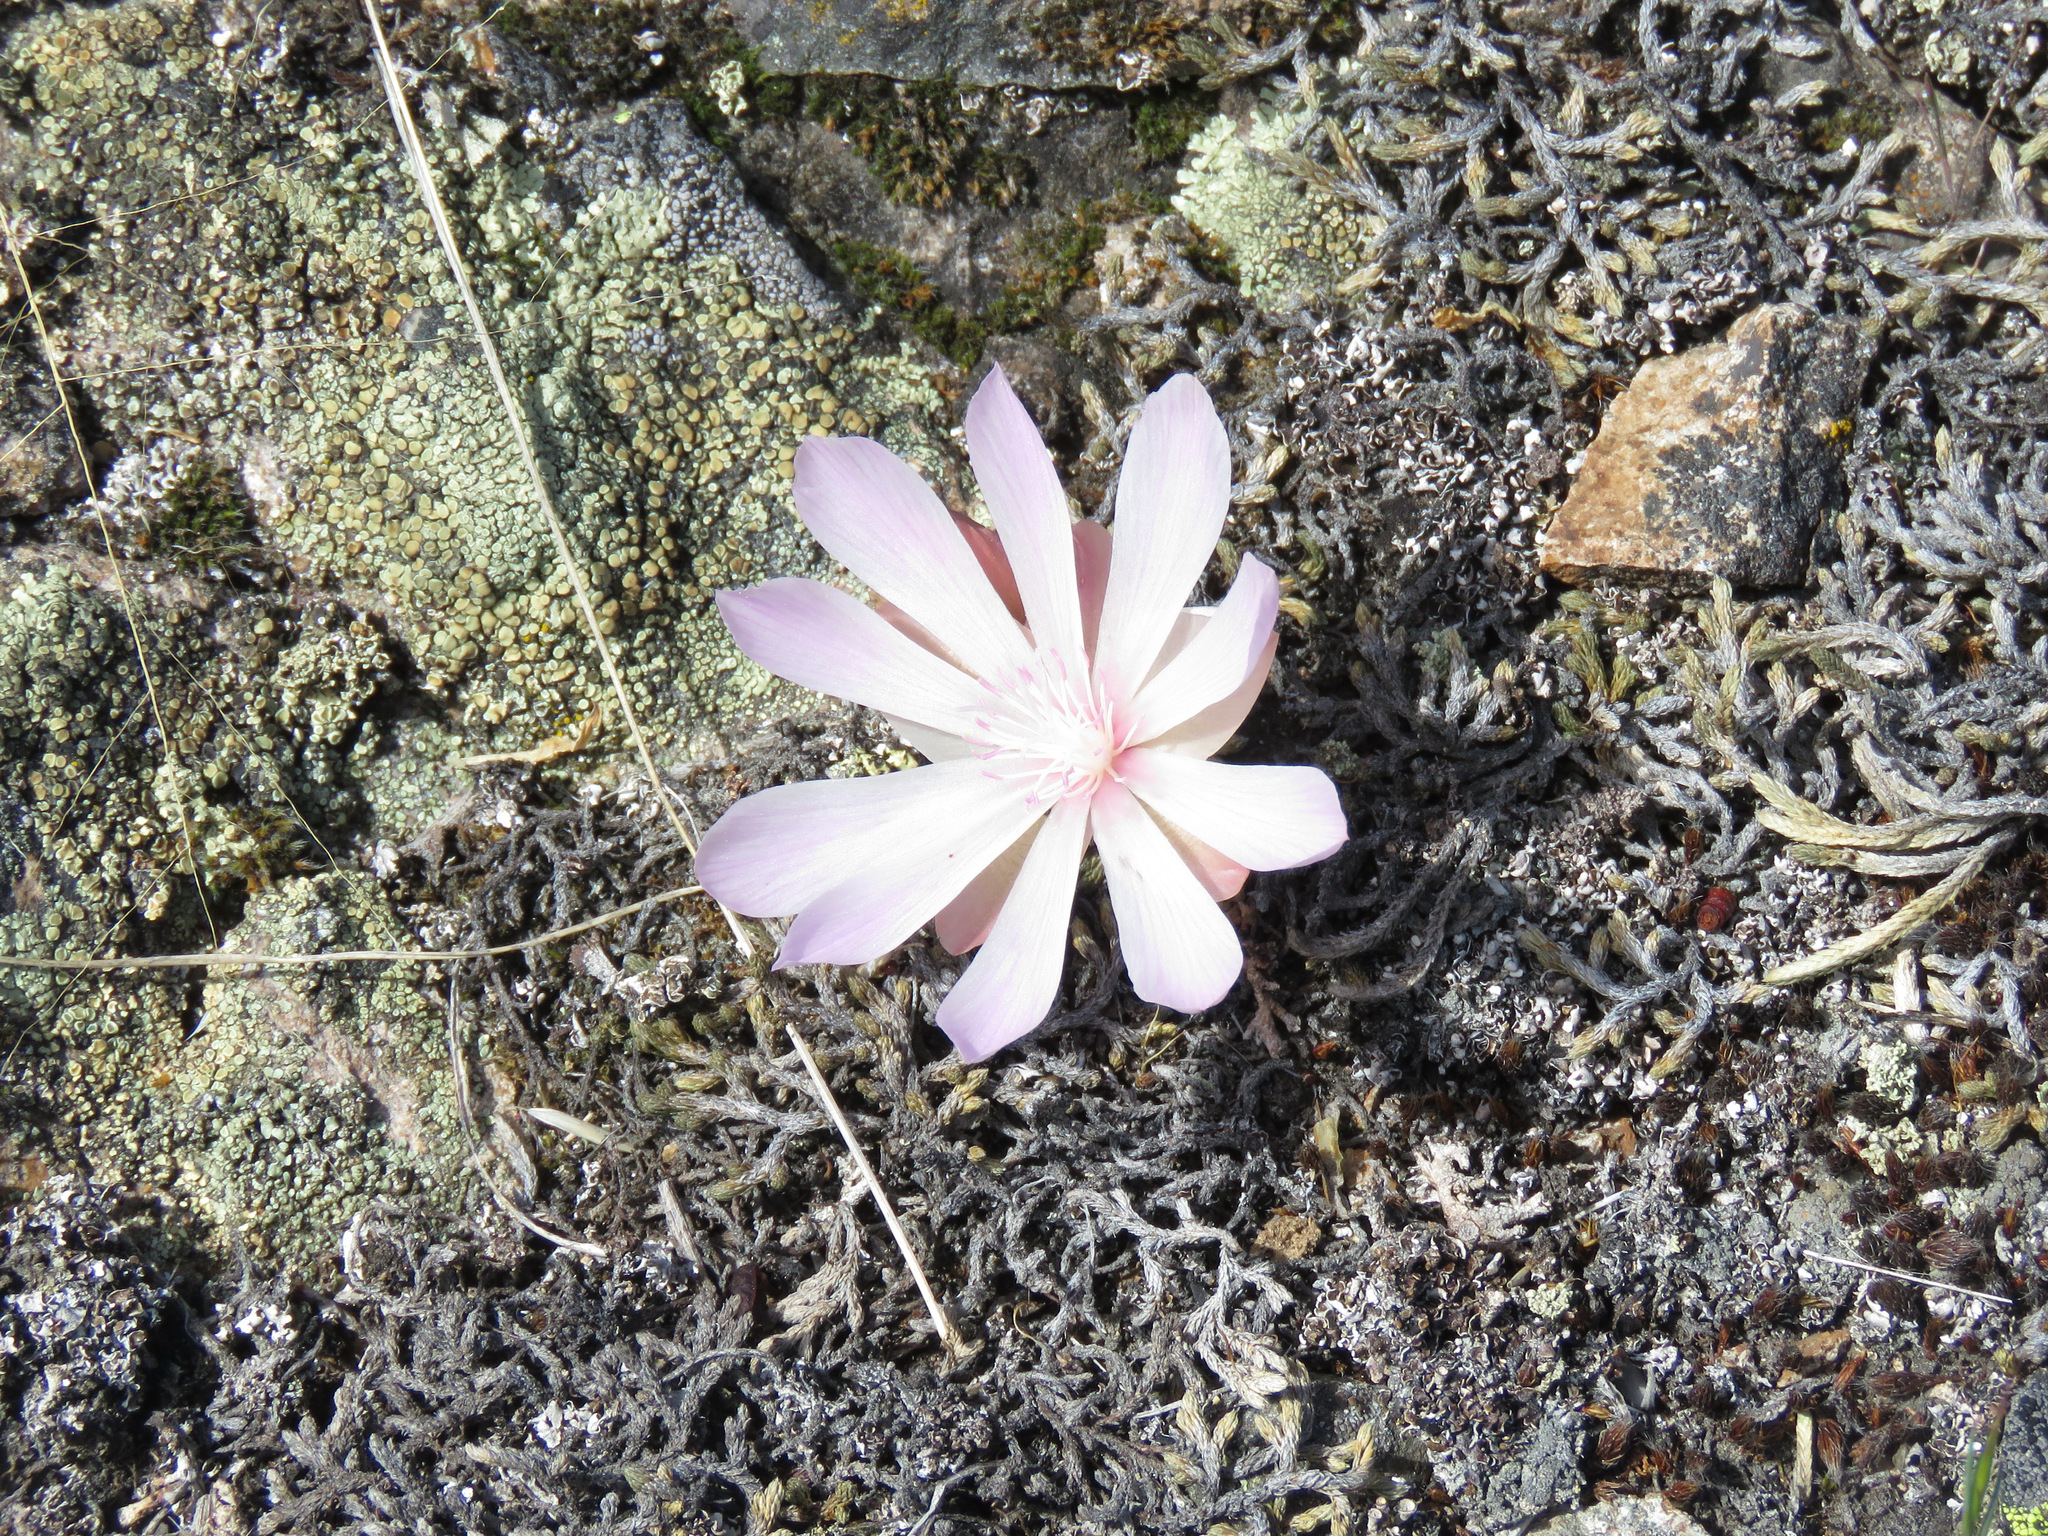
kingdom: Plantae
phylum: Tracheophyta
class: Magnoliopsida
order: Caryophyllales
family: Montiaceae
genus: Lewisia
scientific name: Lewisia rediviva
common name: Bitter-root
